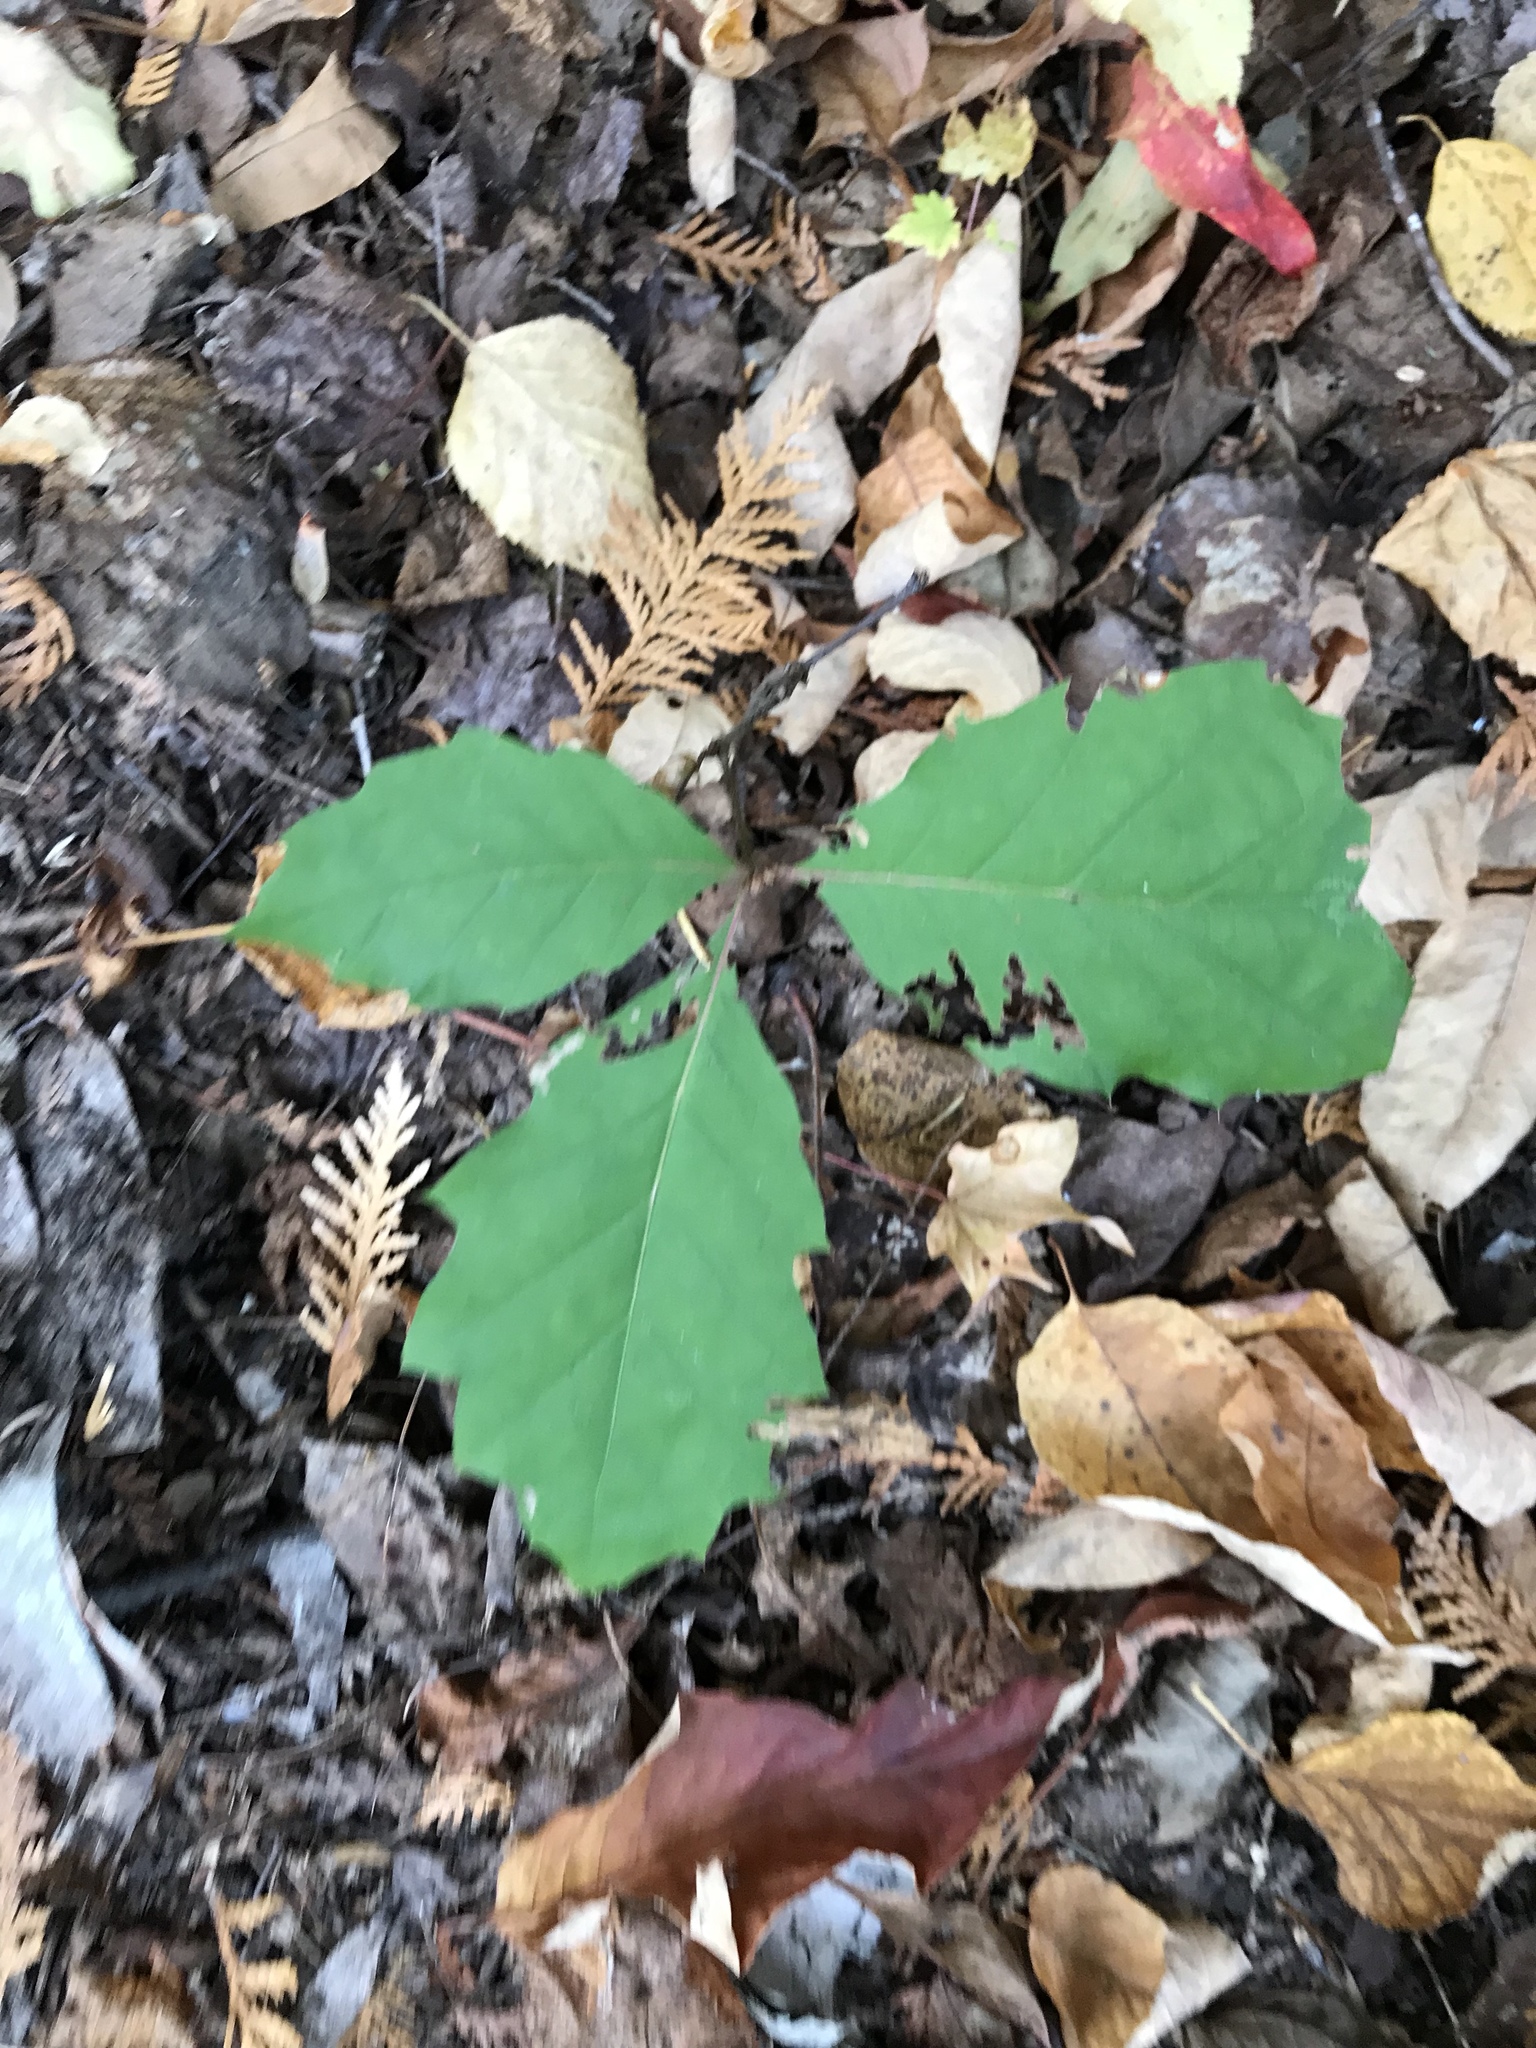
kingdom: Plantae
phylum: Tracheophyta
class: Magnoliopsida
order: Fagales
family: Fagaceae
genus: Quercus
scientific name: Quercus rubra
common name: Red oak
